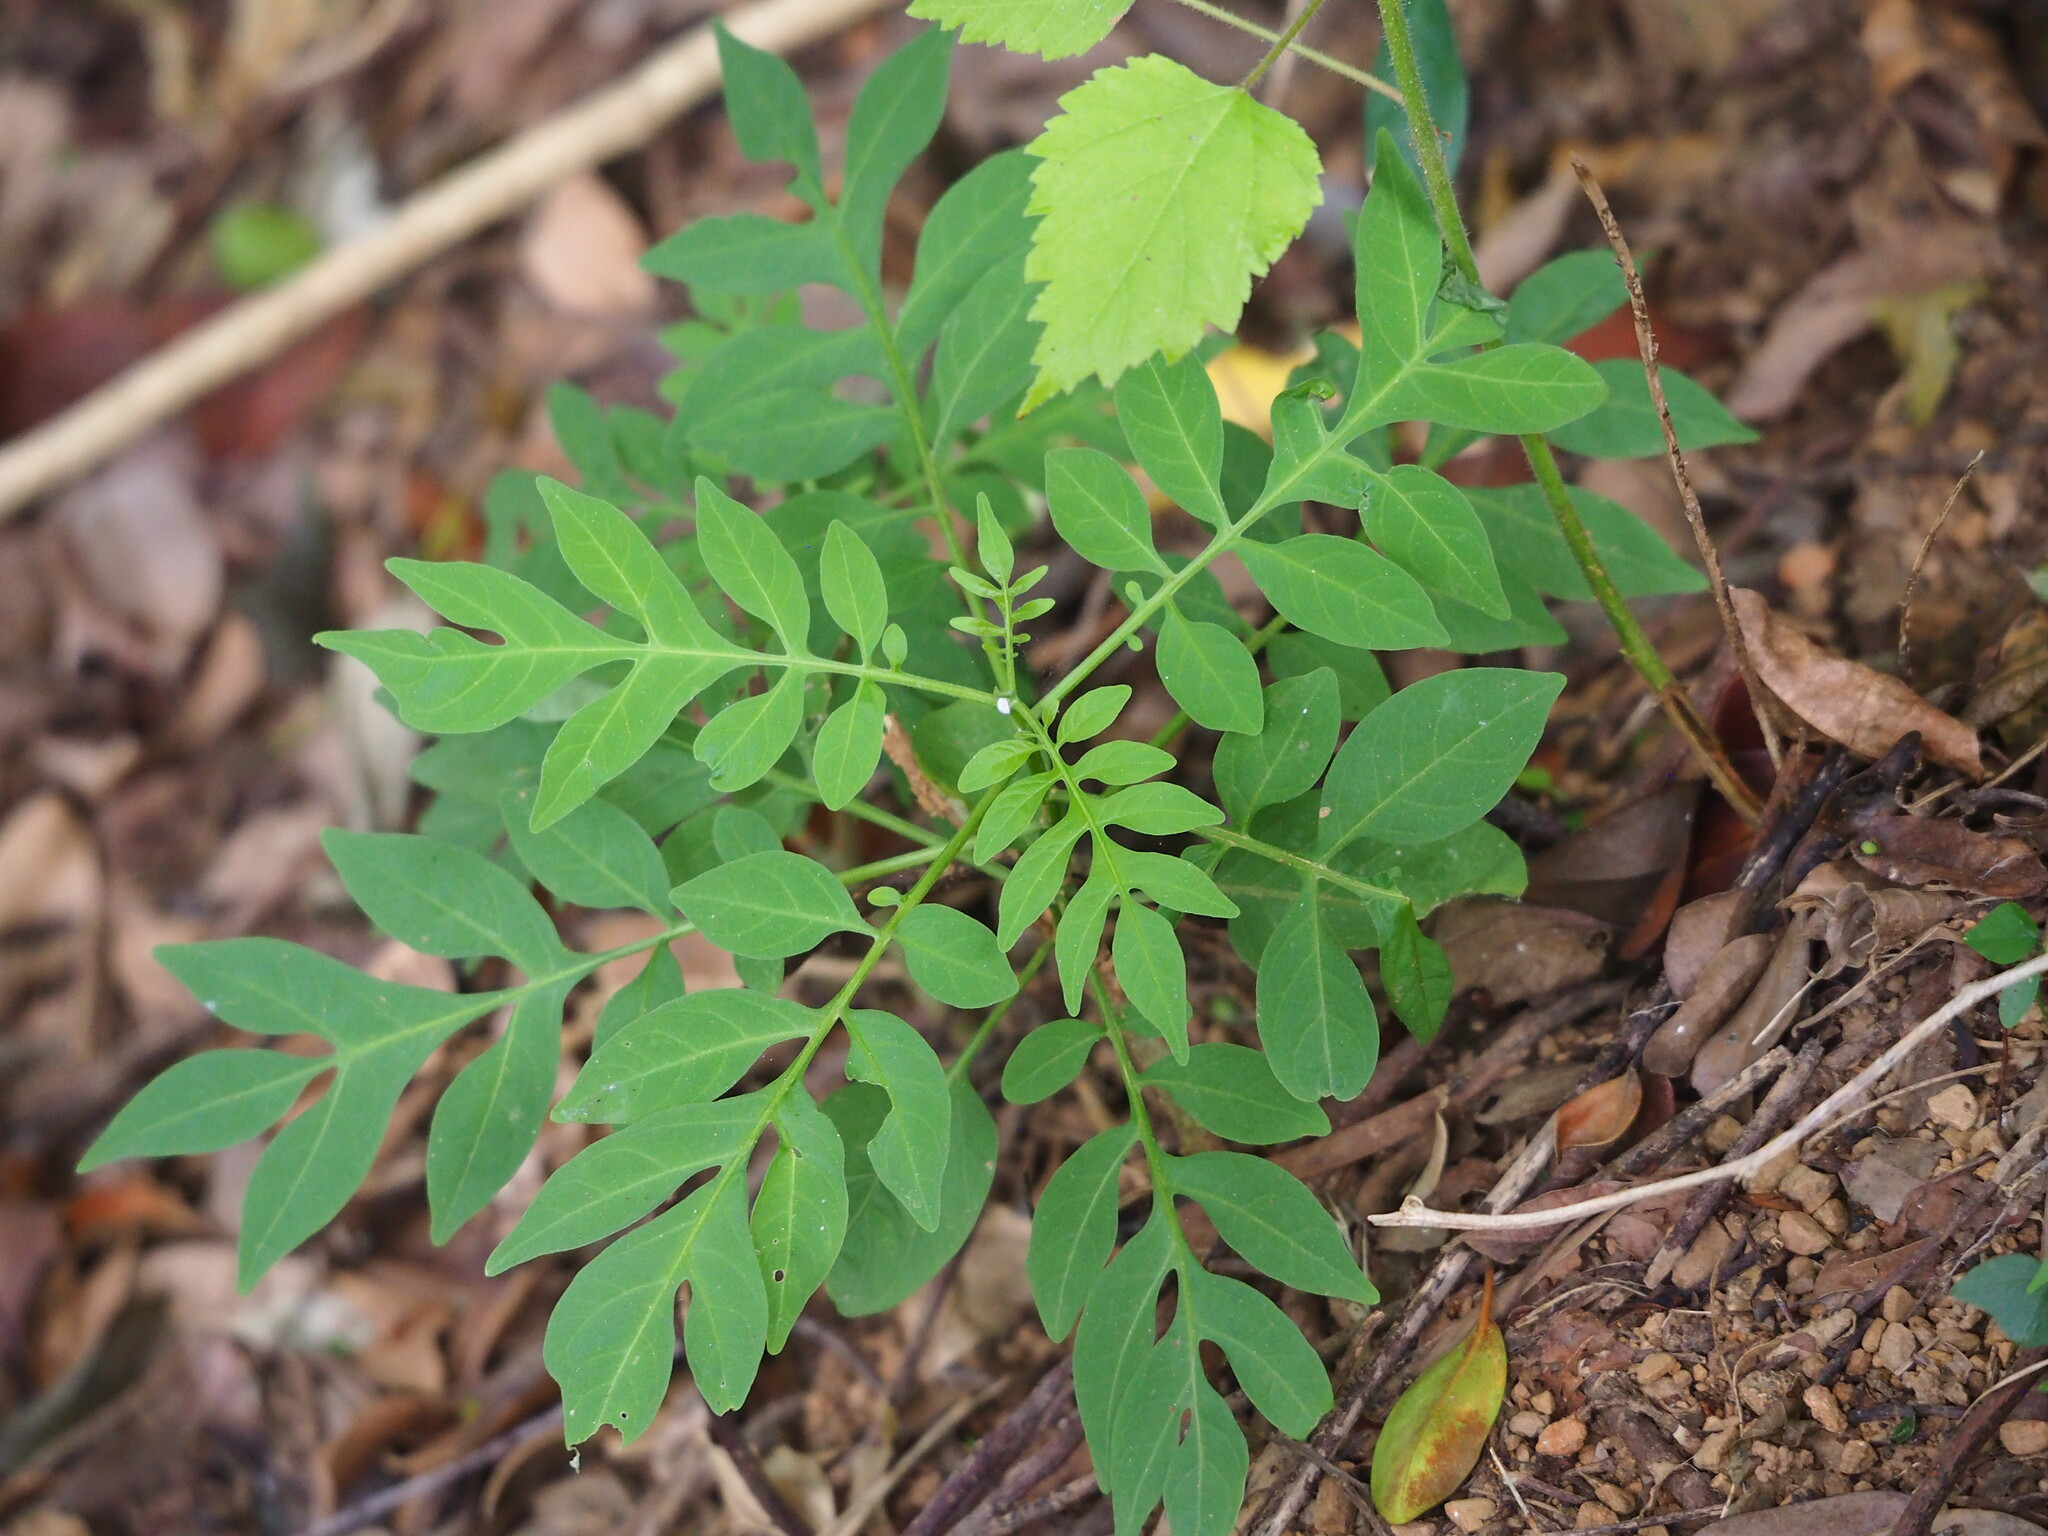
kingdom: Plantae
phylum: Tracheophyta
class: Magnoliopsida
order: Solanales
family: Solanaceae
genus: Solanum
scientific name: Solanum seaforthianum
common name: Brazilian nightshade
